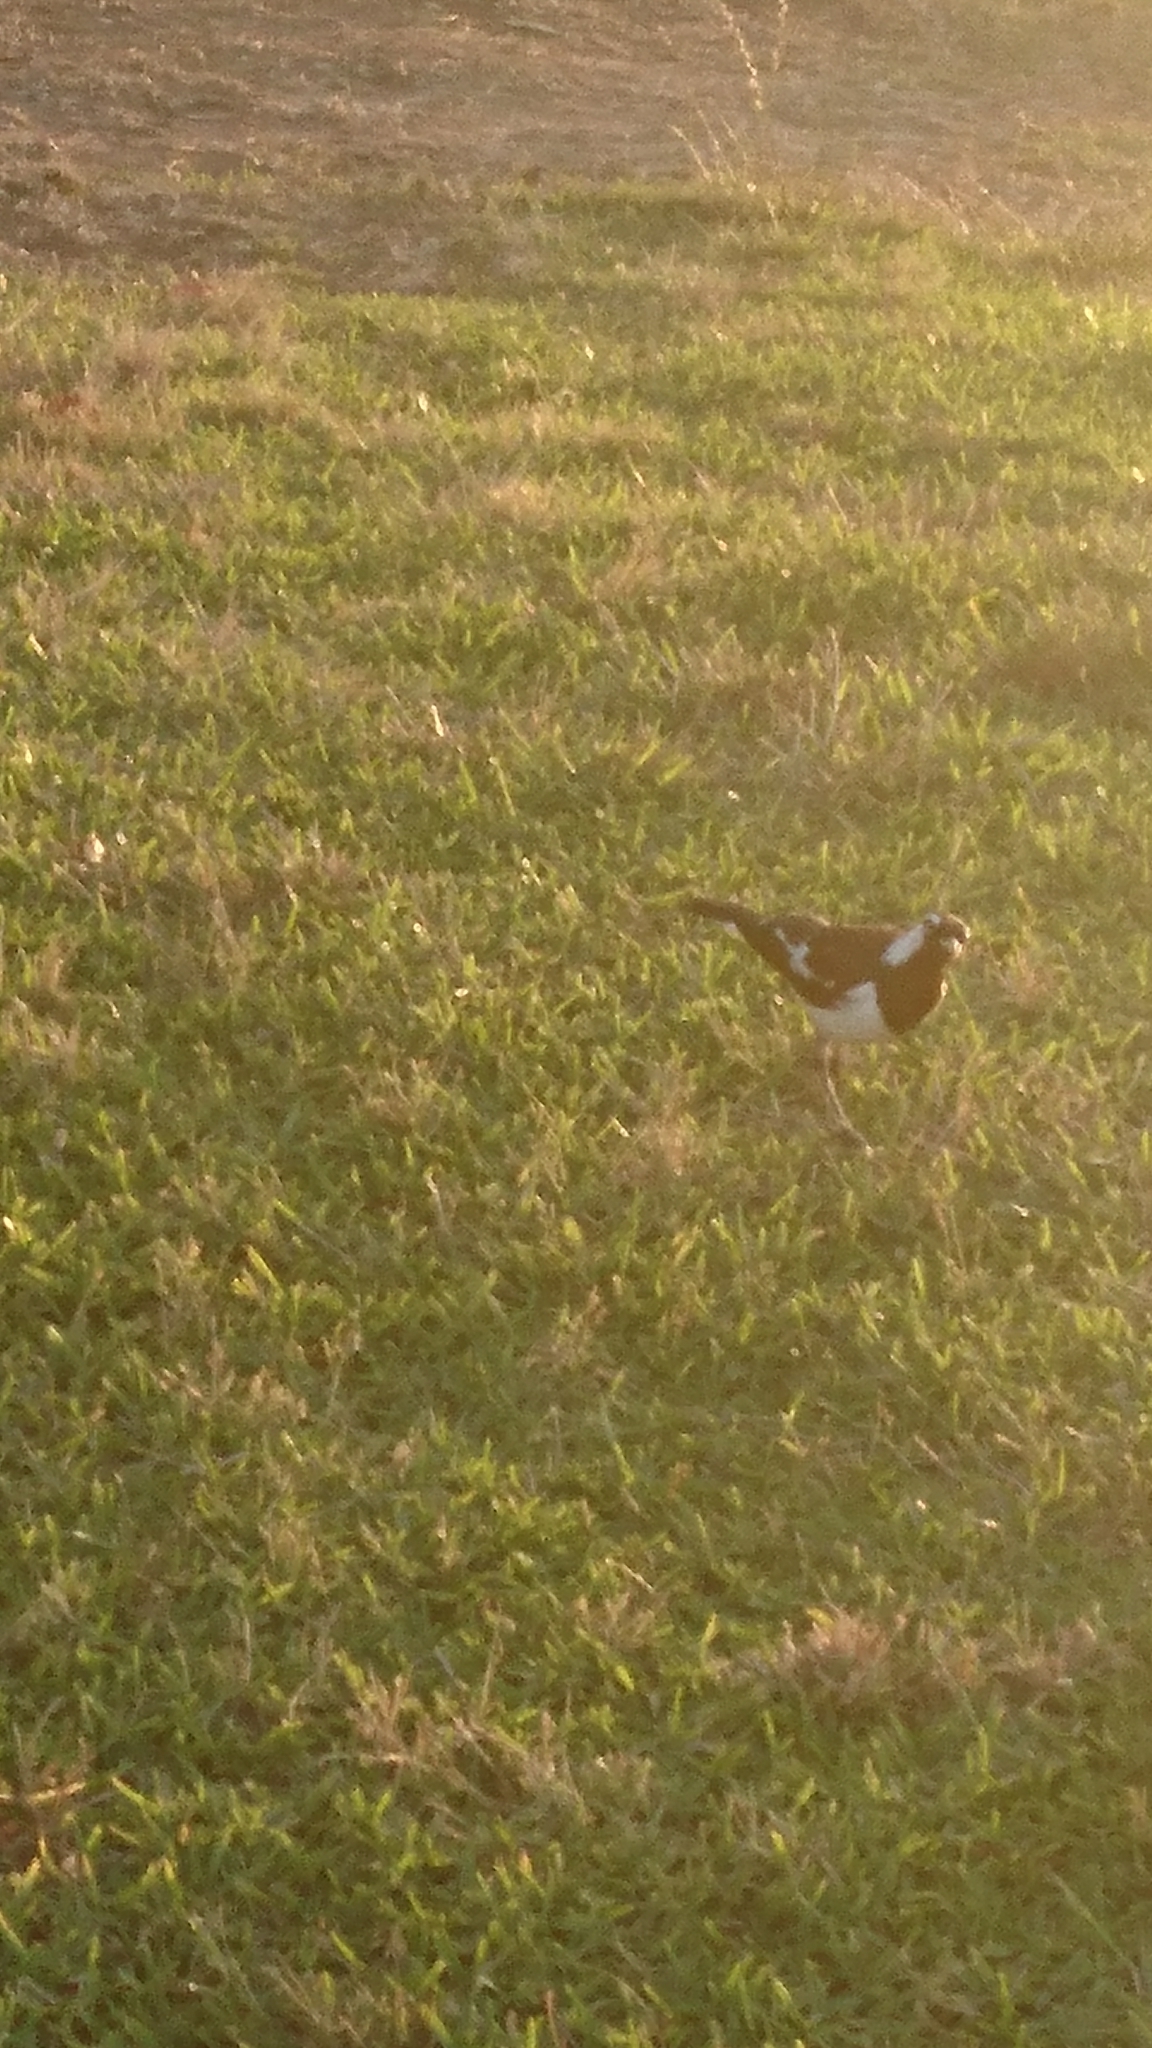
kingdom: Animalia
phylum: Chordata
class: Aves
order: Passeriformes
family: Monarchidae
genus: Grallina
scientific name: Grallina cyanoleuca
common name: Magpie-lark
